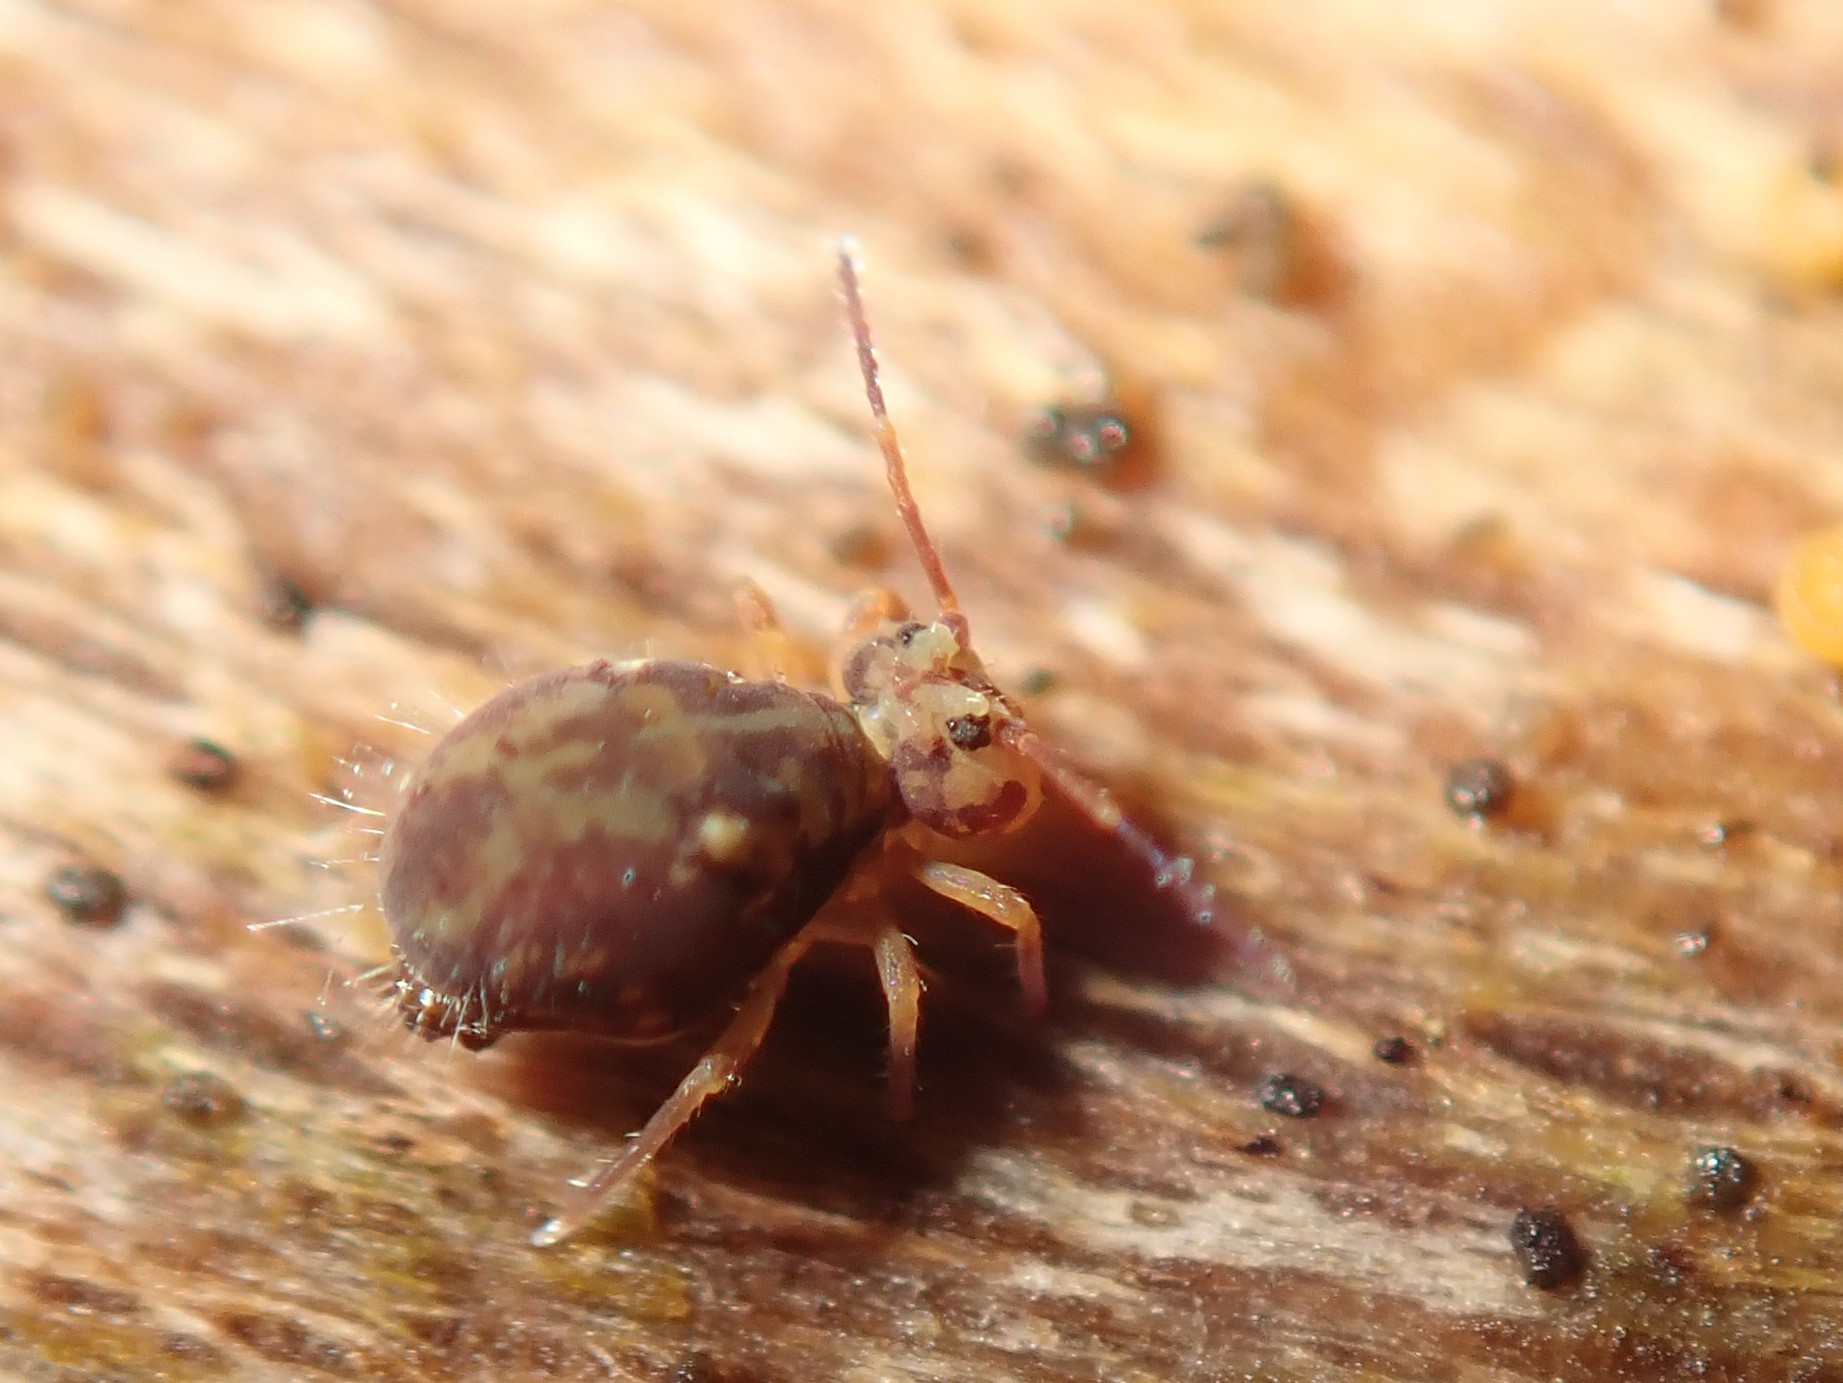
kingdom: Animalia
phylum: Arthropoda
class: Collembola
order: Symphypleona
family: Dicyrtomidae
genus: Dicyrtomina
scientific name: Dicyrtomina ornata
